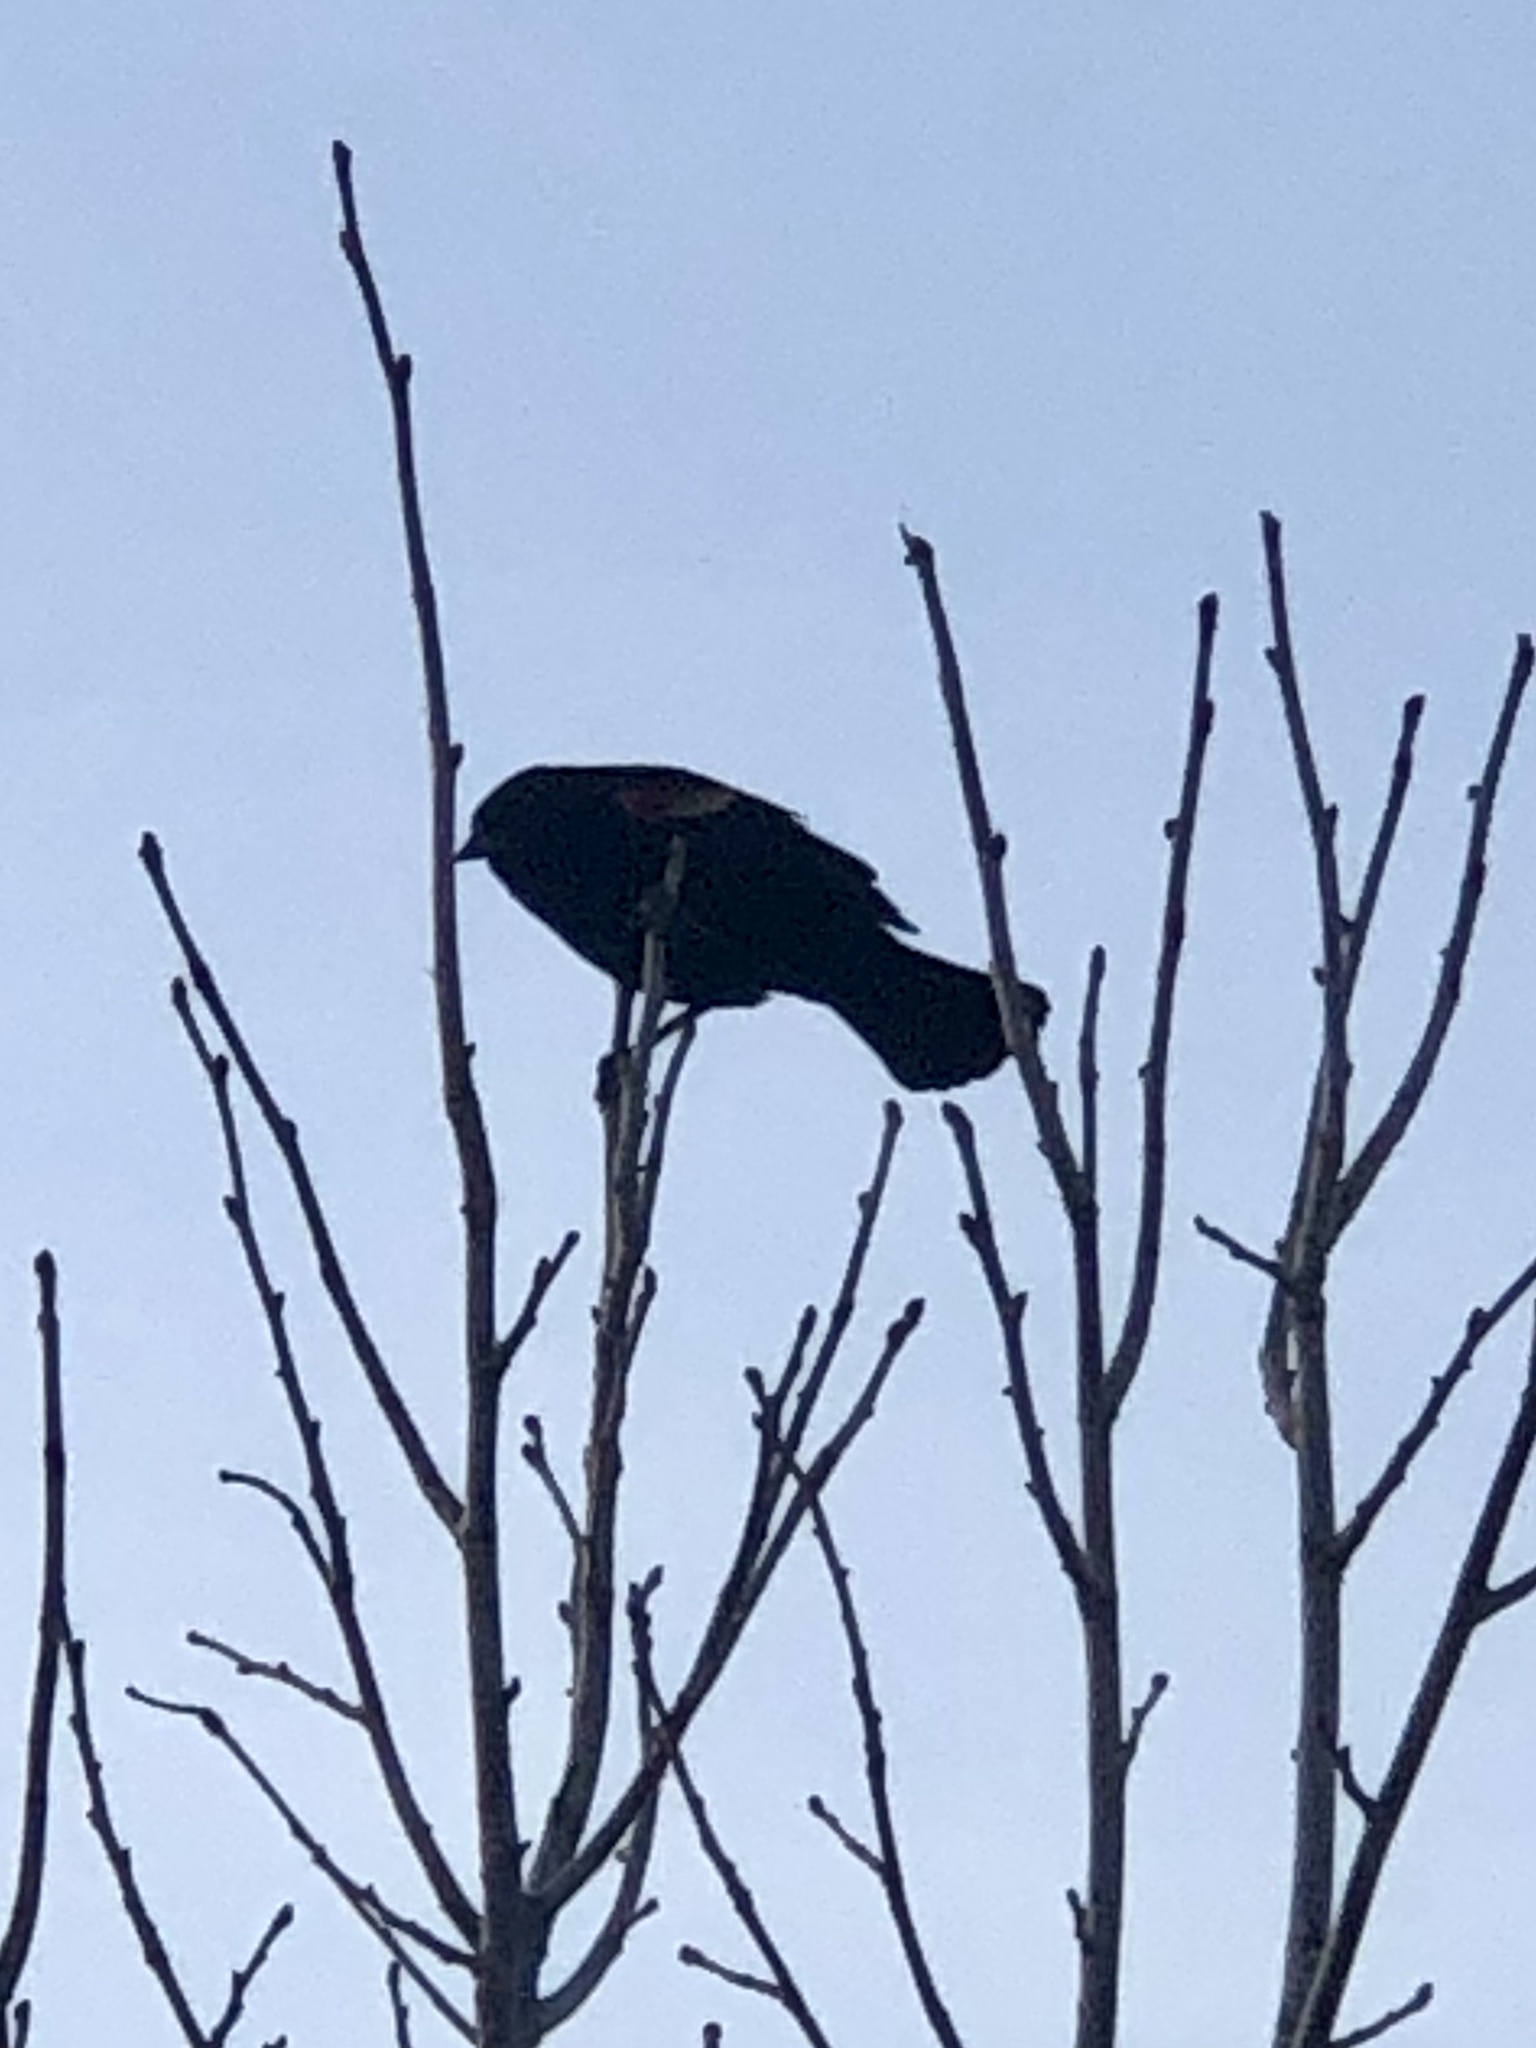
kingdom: Animalia
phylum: Chordata
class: Aves
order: Passeriformes
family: Icteridae
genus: Agelaius
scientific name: Agelaius phoeniceus
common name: Red-winged blackbird
